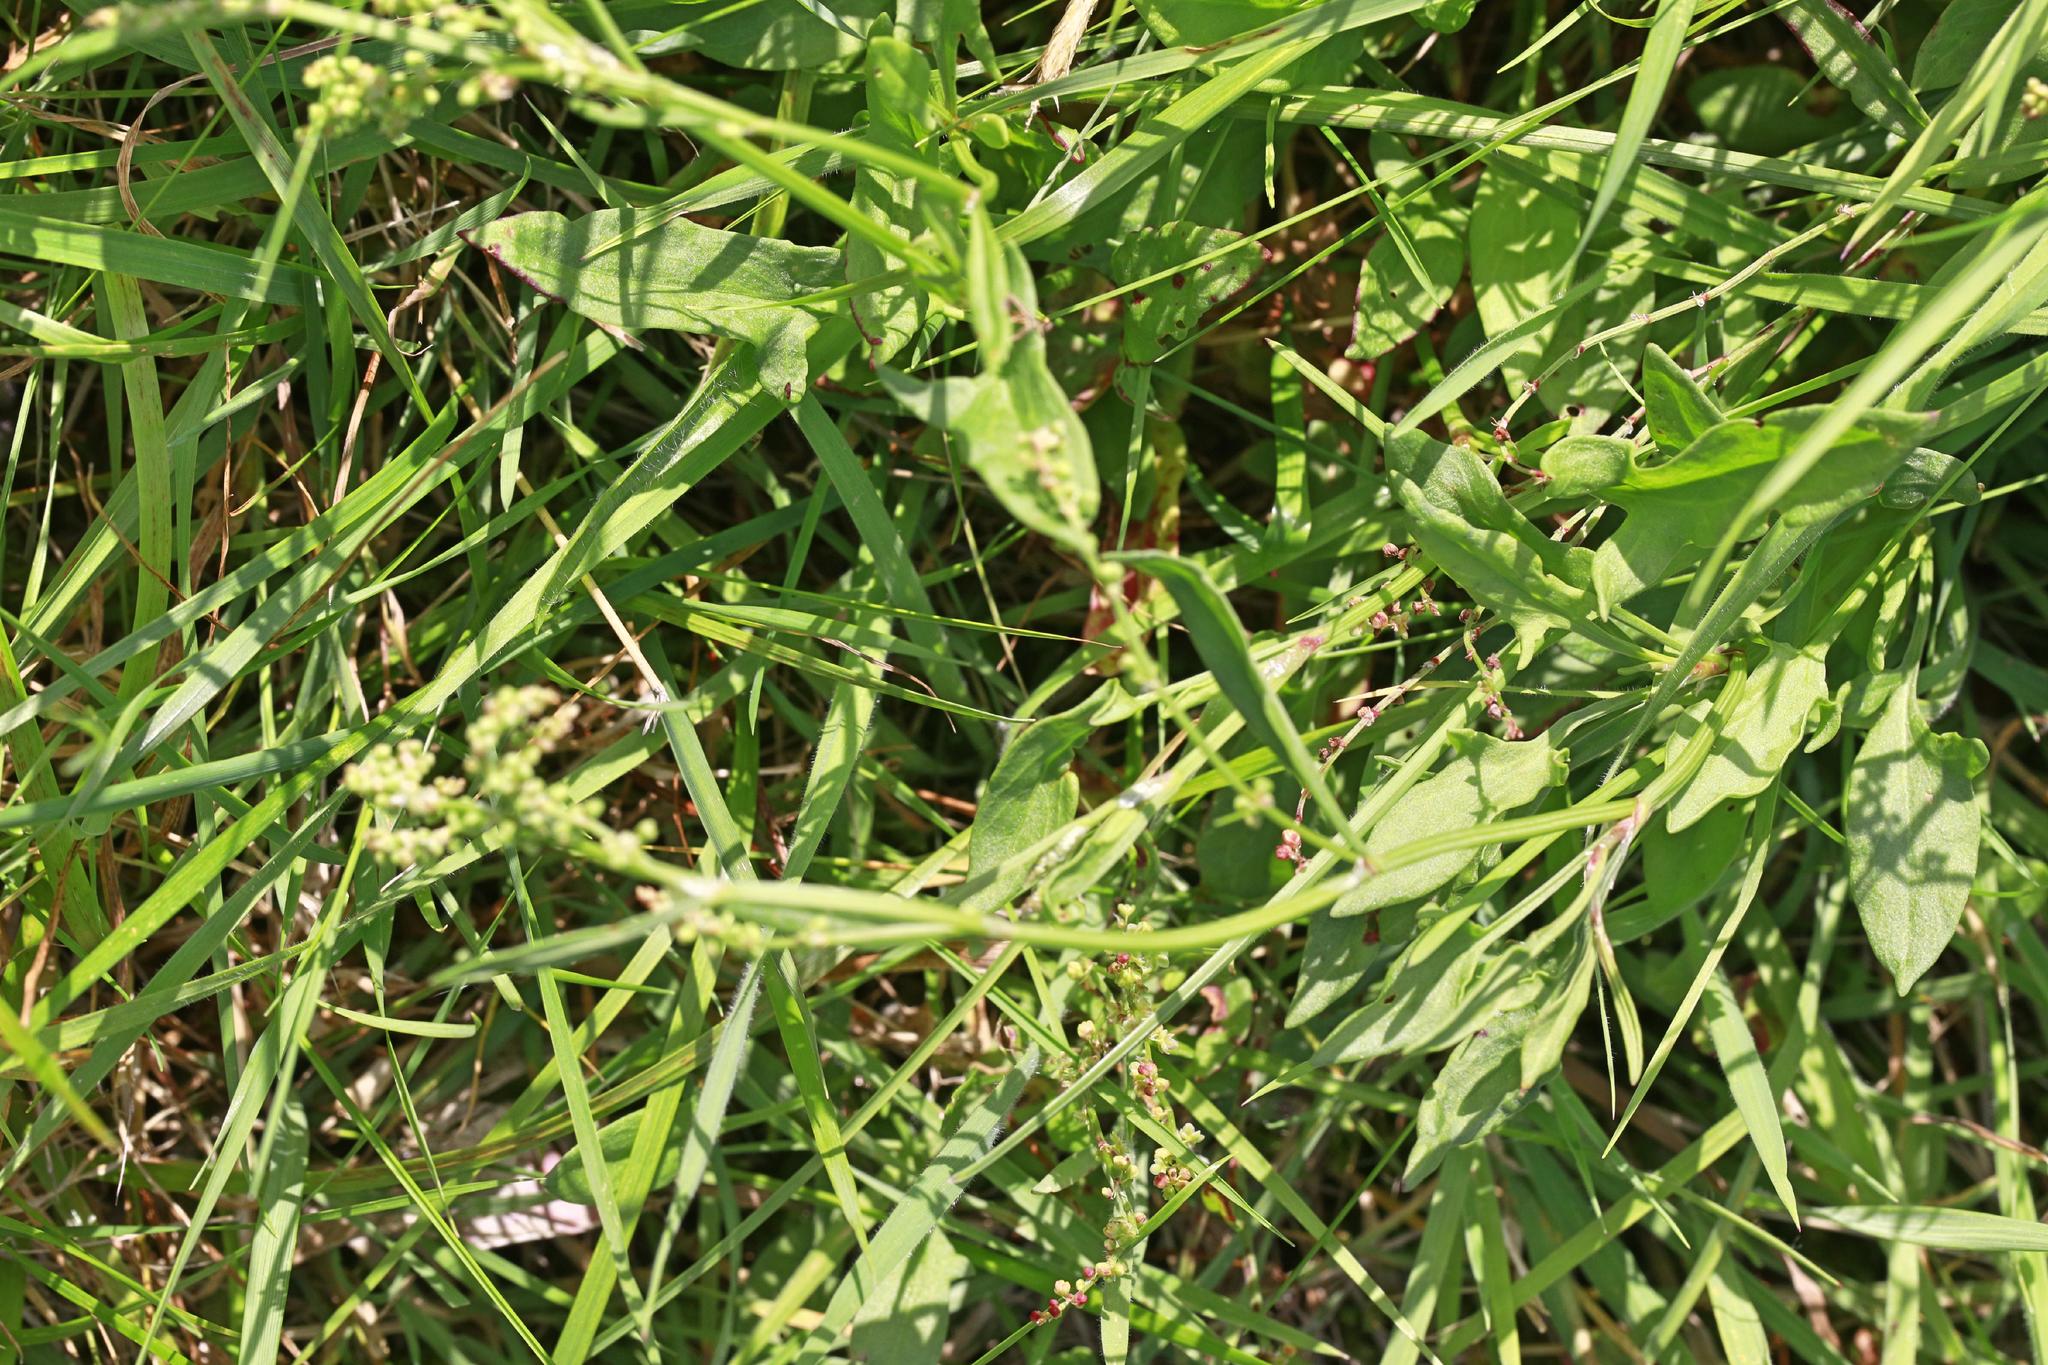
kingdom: Plantae
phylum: Tracheophyta
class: Magnoliopsida
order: Caryophyllales
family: Polygonaceae
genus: Rumex
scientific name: Rumex acetosella
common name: Common sheep sorrel
